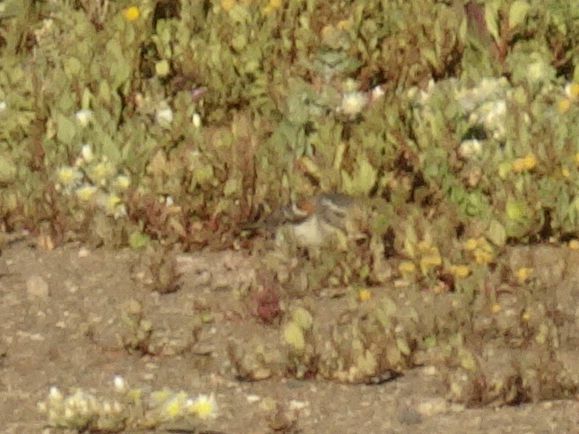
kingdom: Animalia
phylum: Chordata
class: Aves
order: Passeriformes
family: Passeridae
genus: Passer
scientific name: Passer melanurus
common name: Cape sparrow
